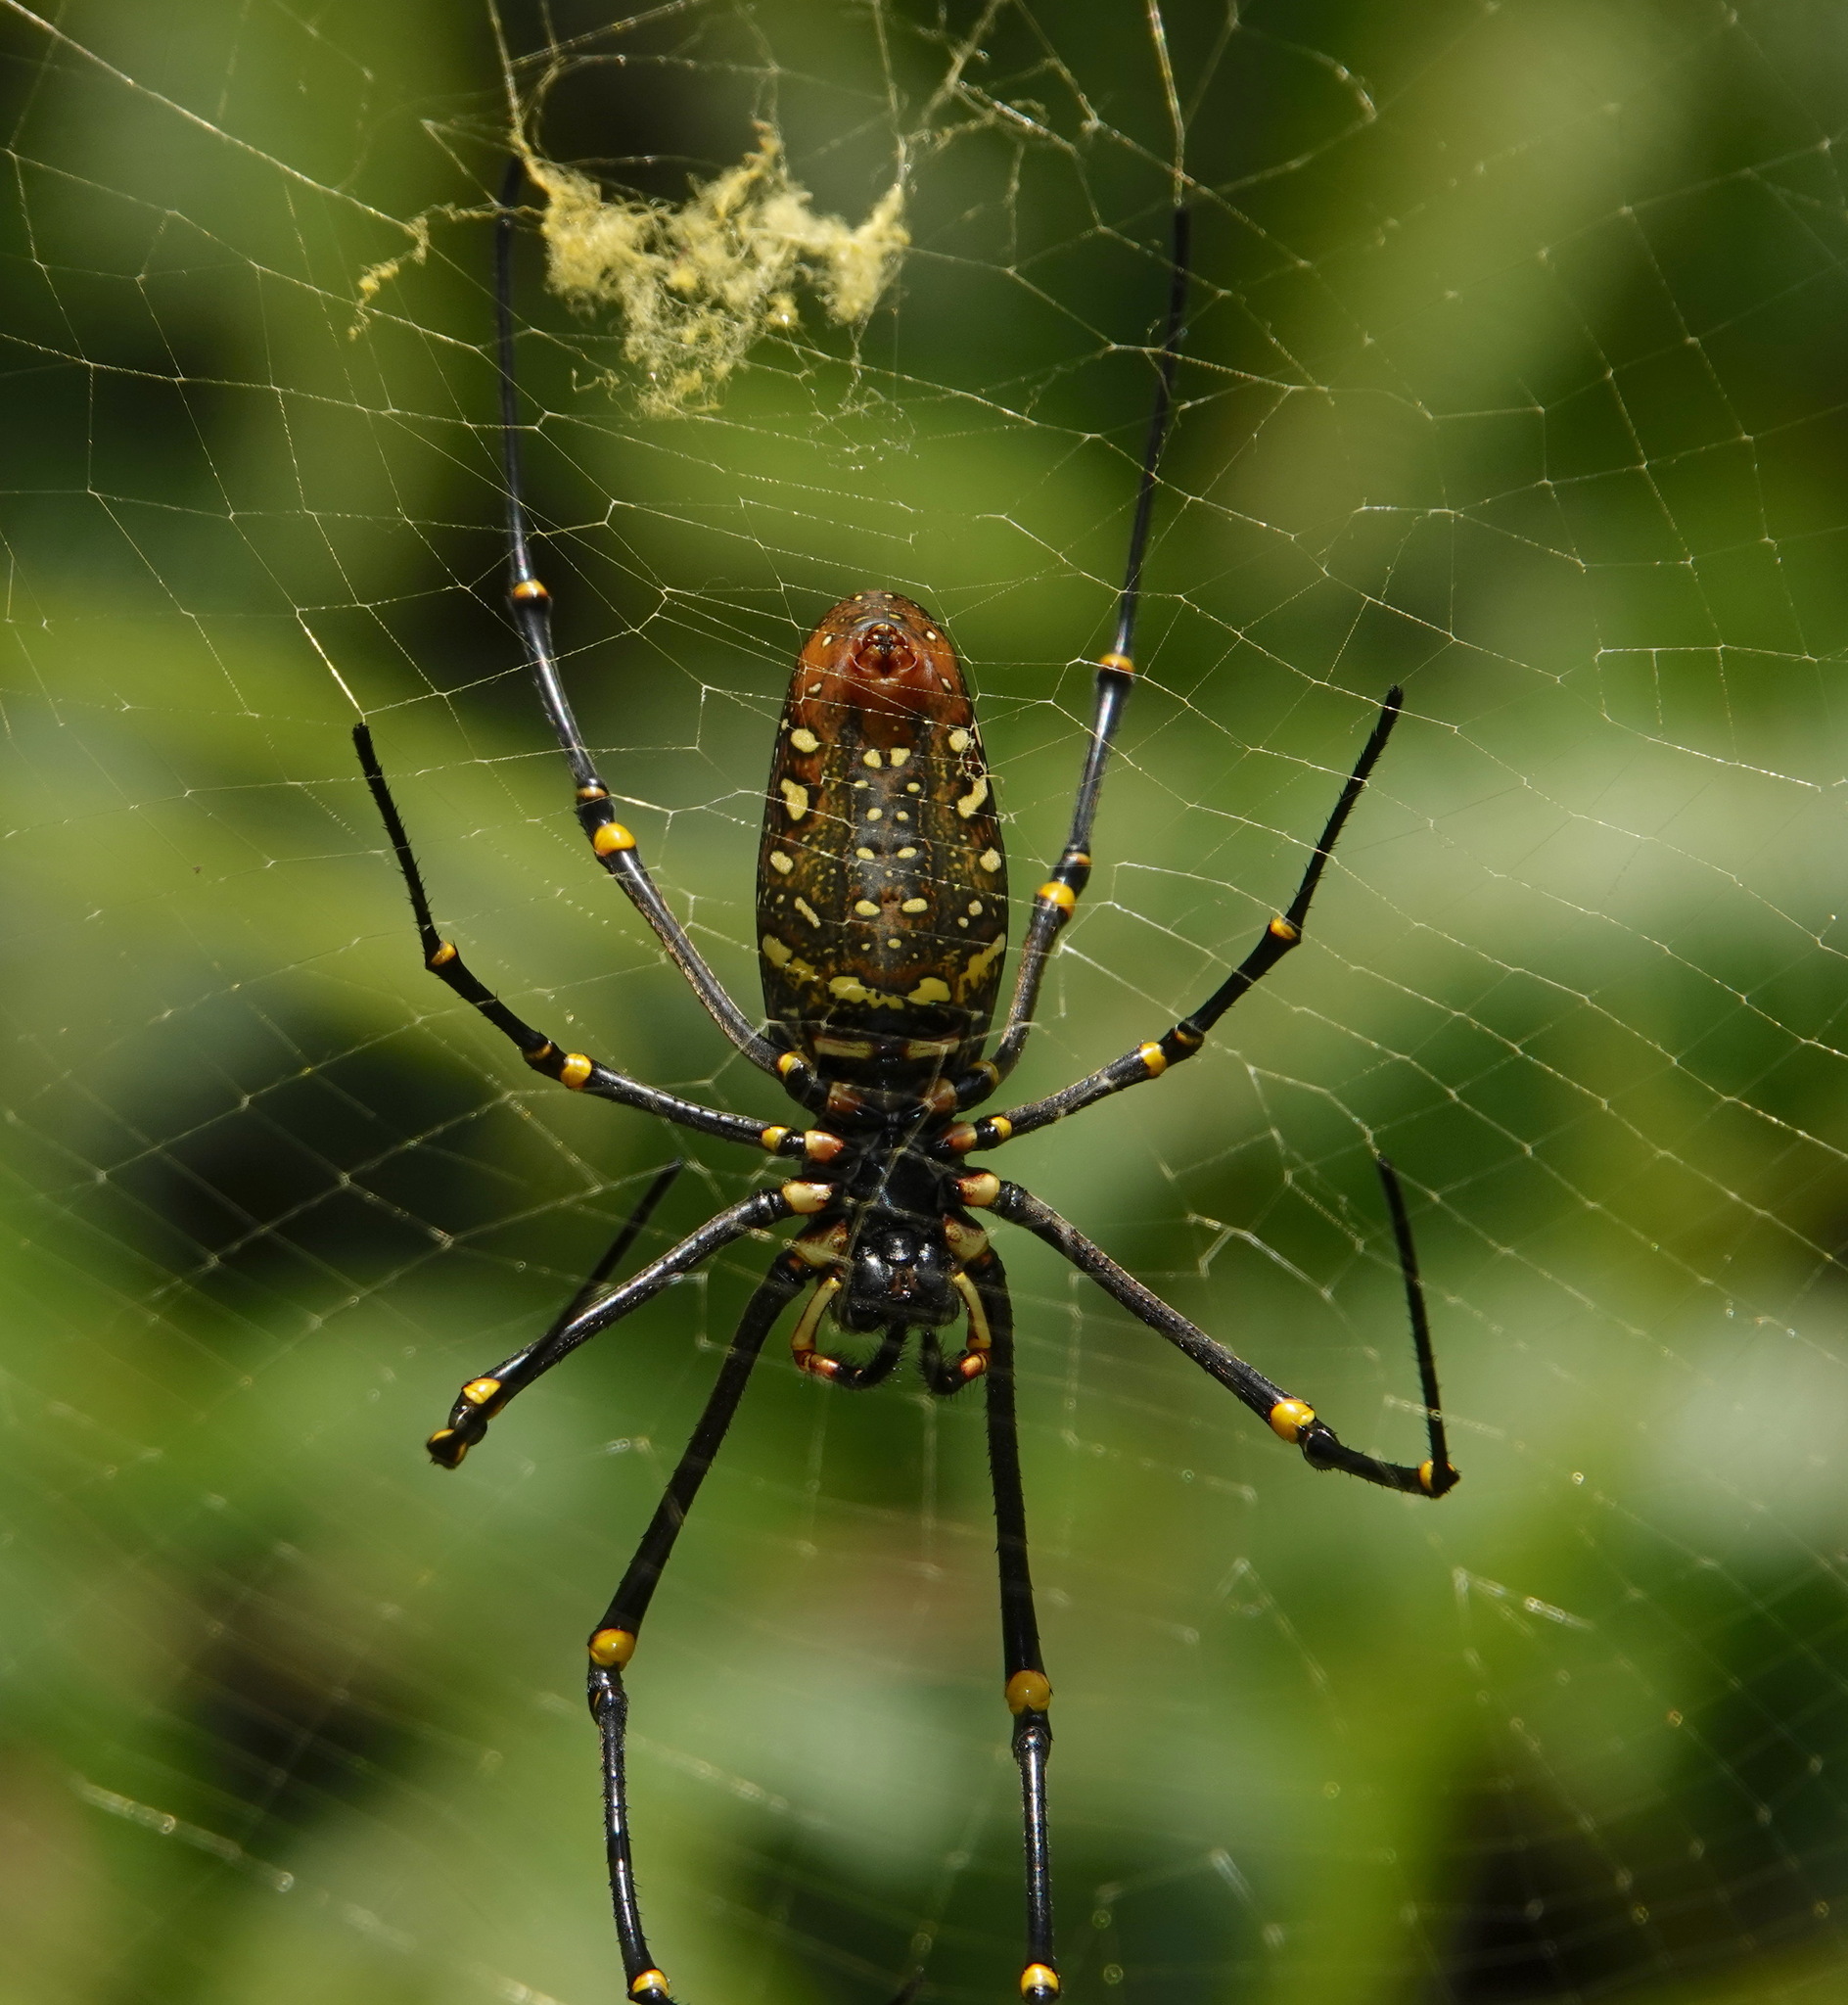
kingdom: Animalia
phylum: Arthropoda
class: Arachnida
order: Araneae
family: Araneidae
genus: Nephila
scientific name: Nephila pilipes
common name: Giant golden orb weaver
